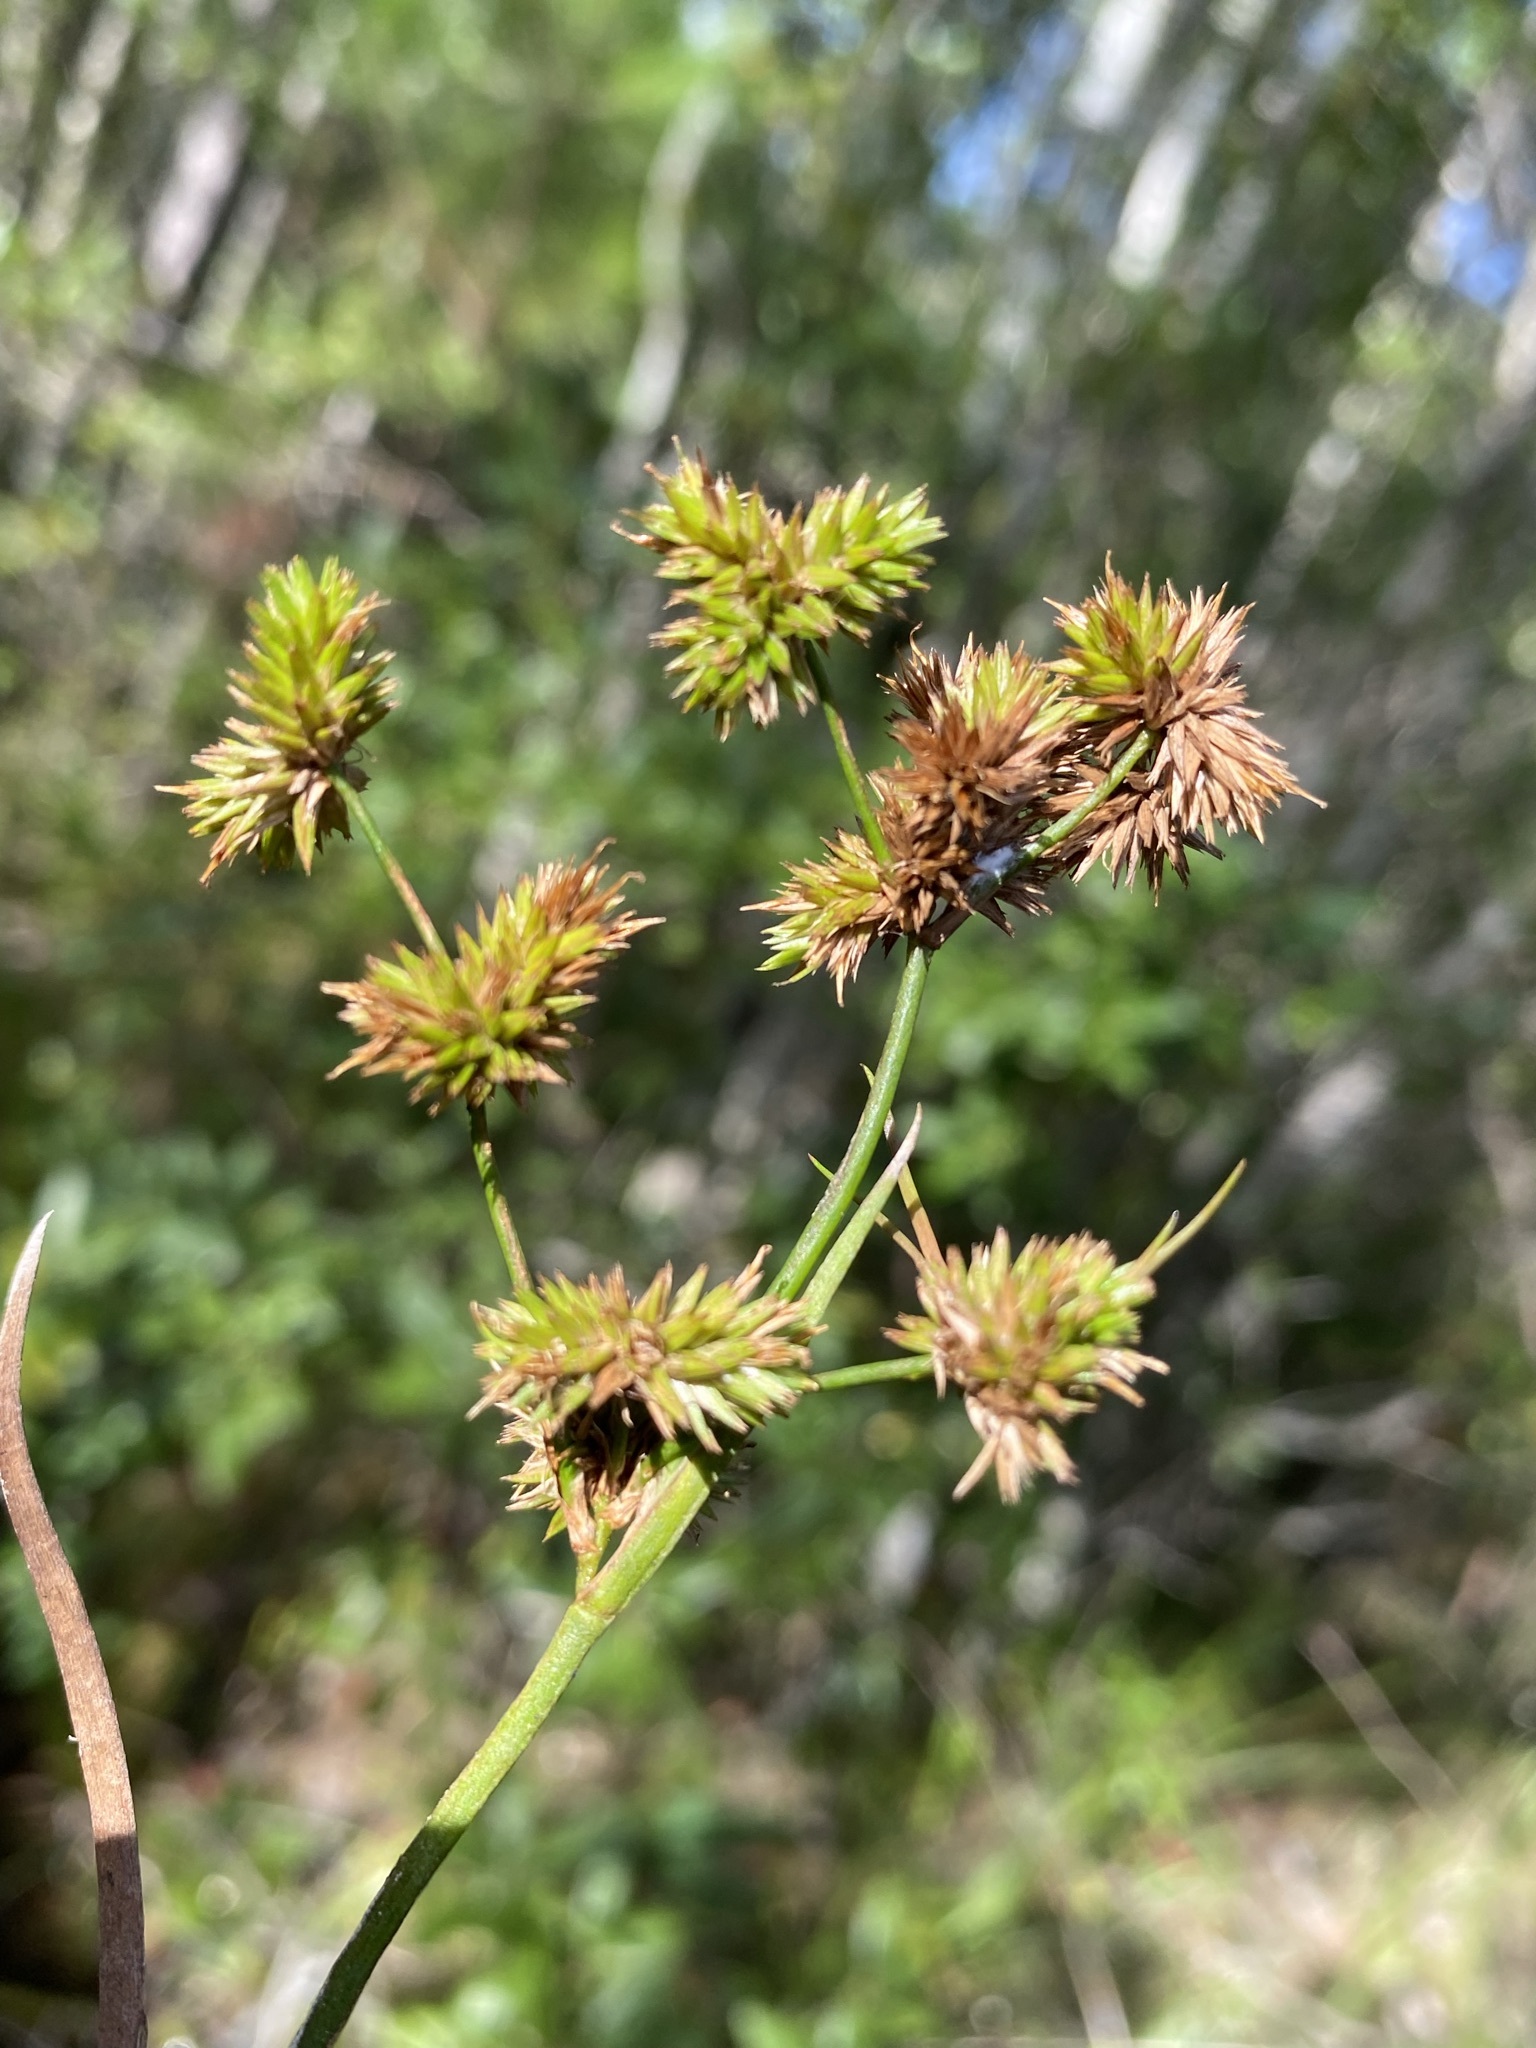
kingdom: Plantae
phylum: Tracheophyta
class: Liliopsida
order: Poales
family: Juncaceae
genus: Juncus
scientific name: Juncus polycephalus
